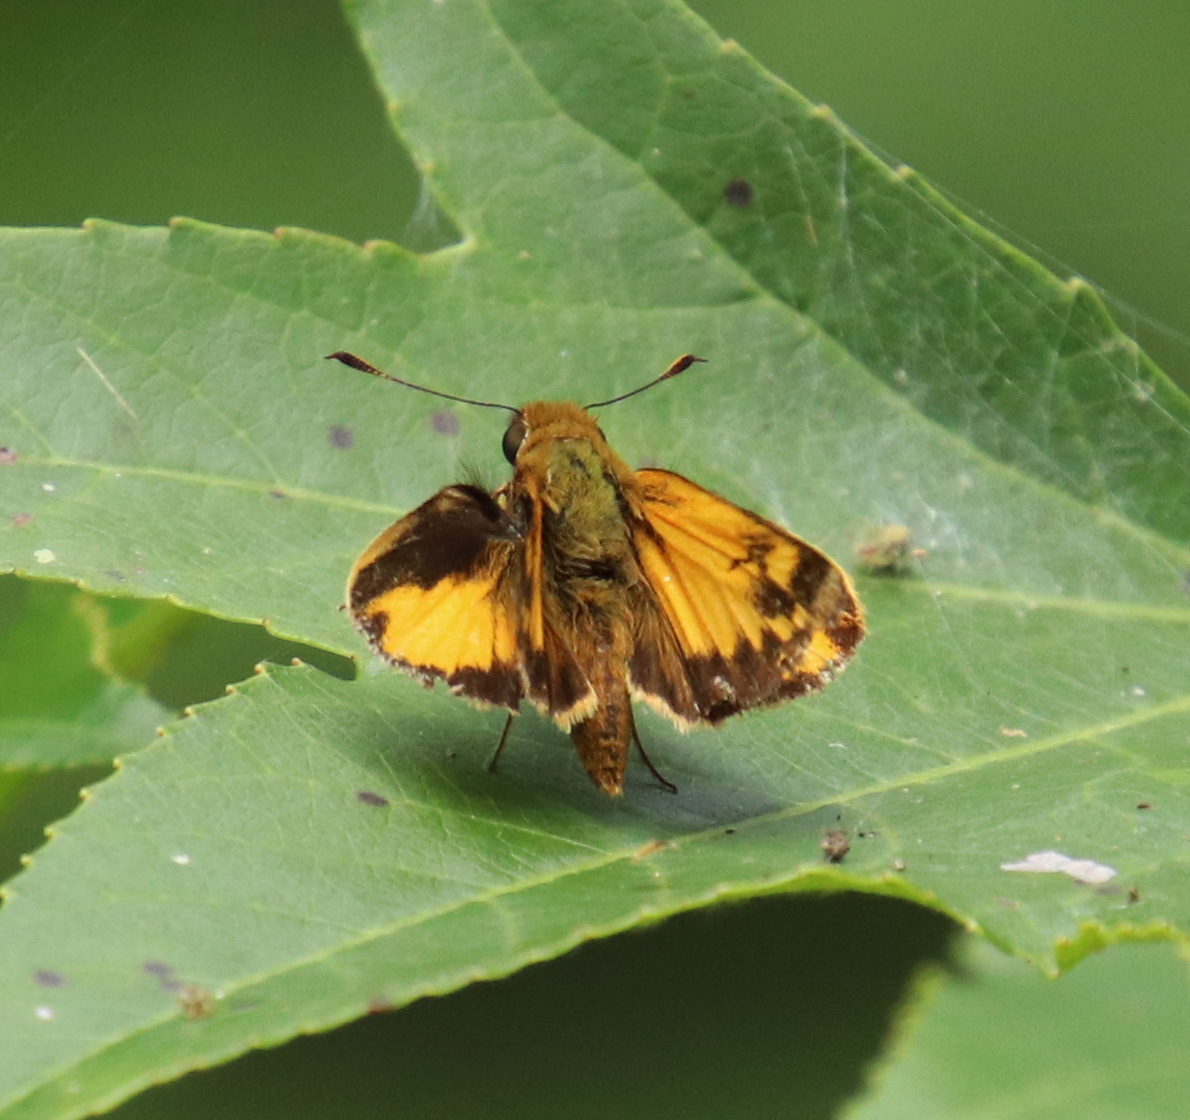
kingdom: Animalia
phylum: Arthropoda
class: Insecta
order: Lepidoptera
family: Hesperiidae
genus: Lon
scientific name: Lon zabulon
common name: Zabulon skipper
